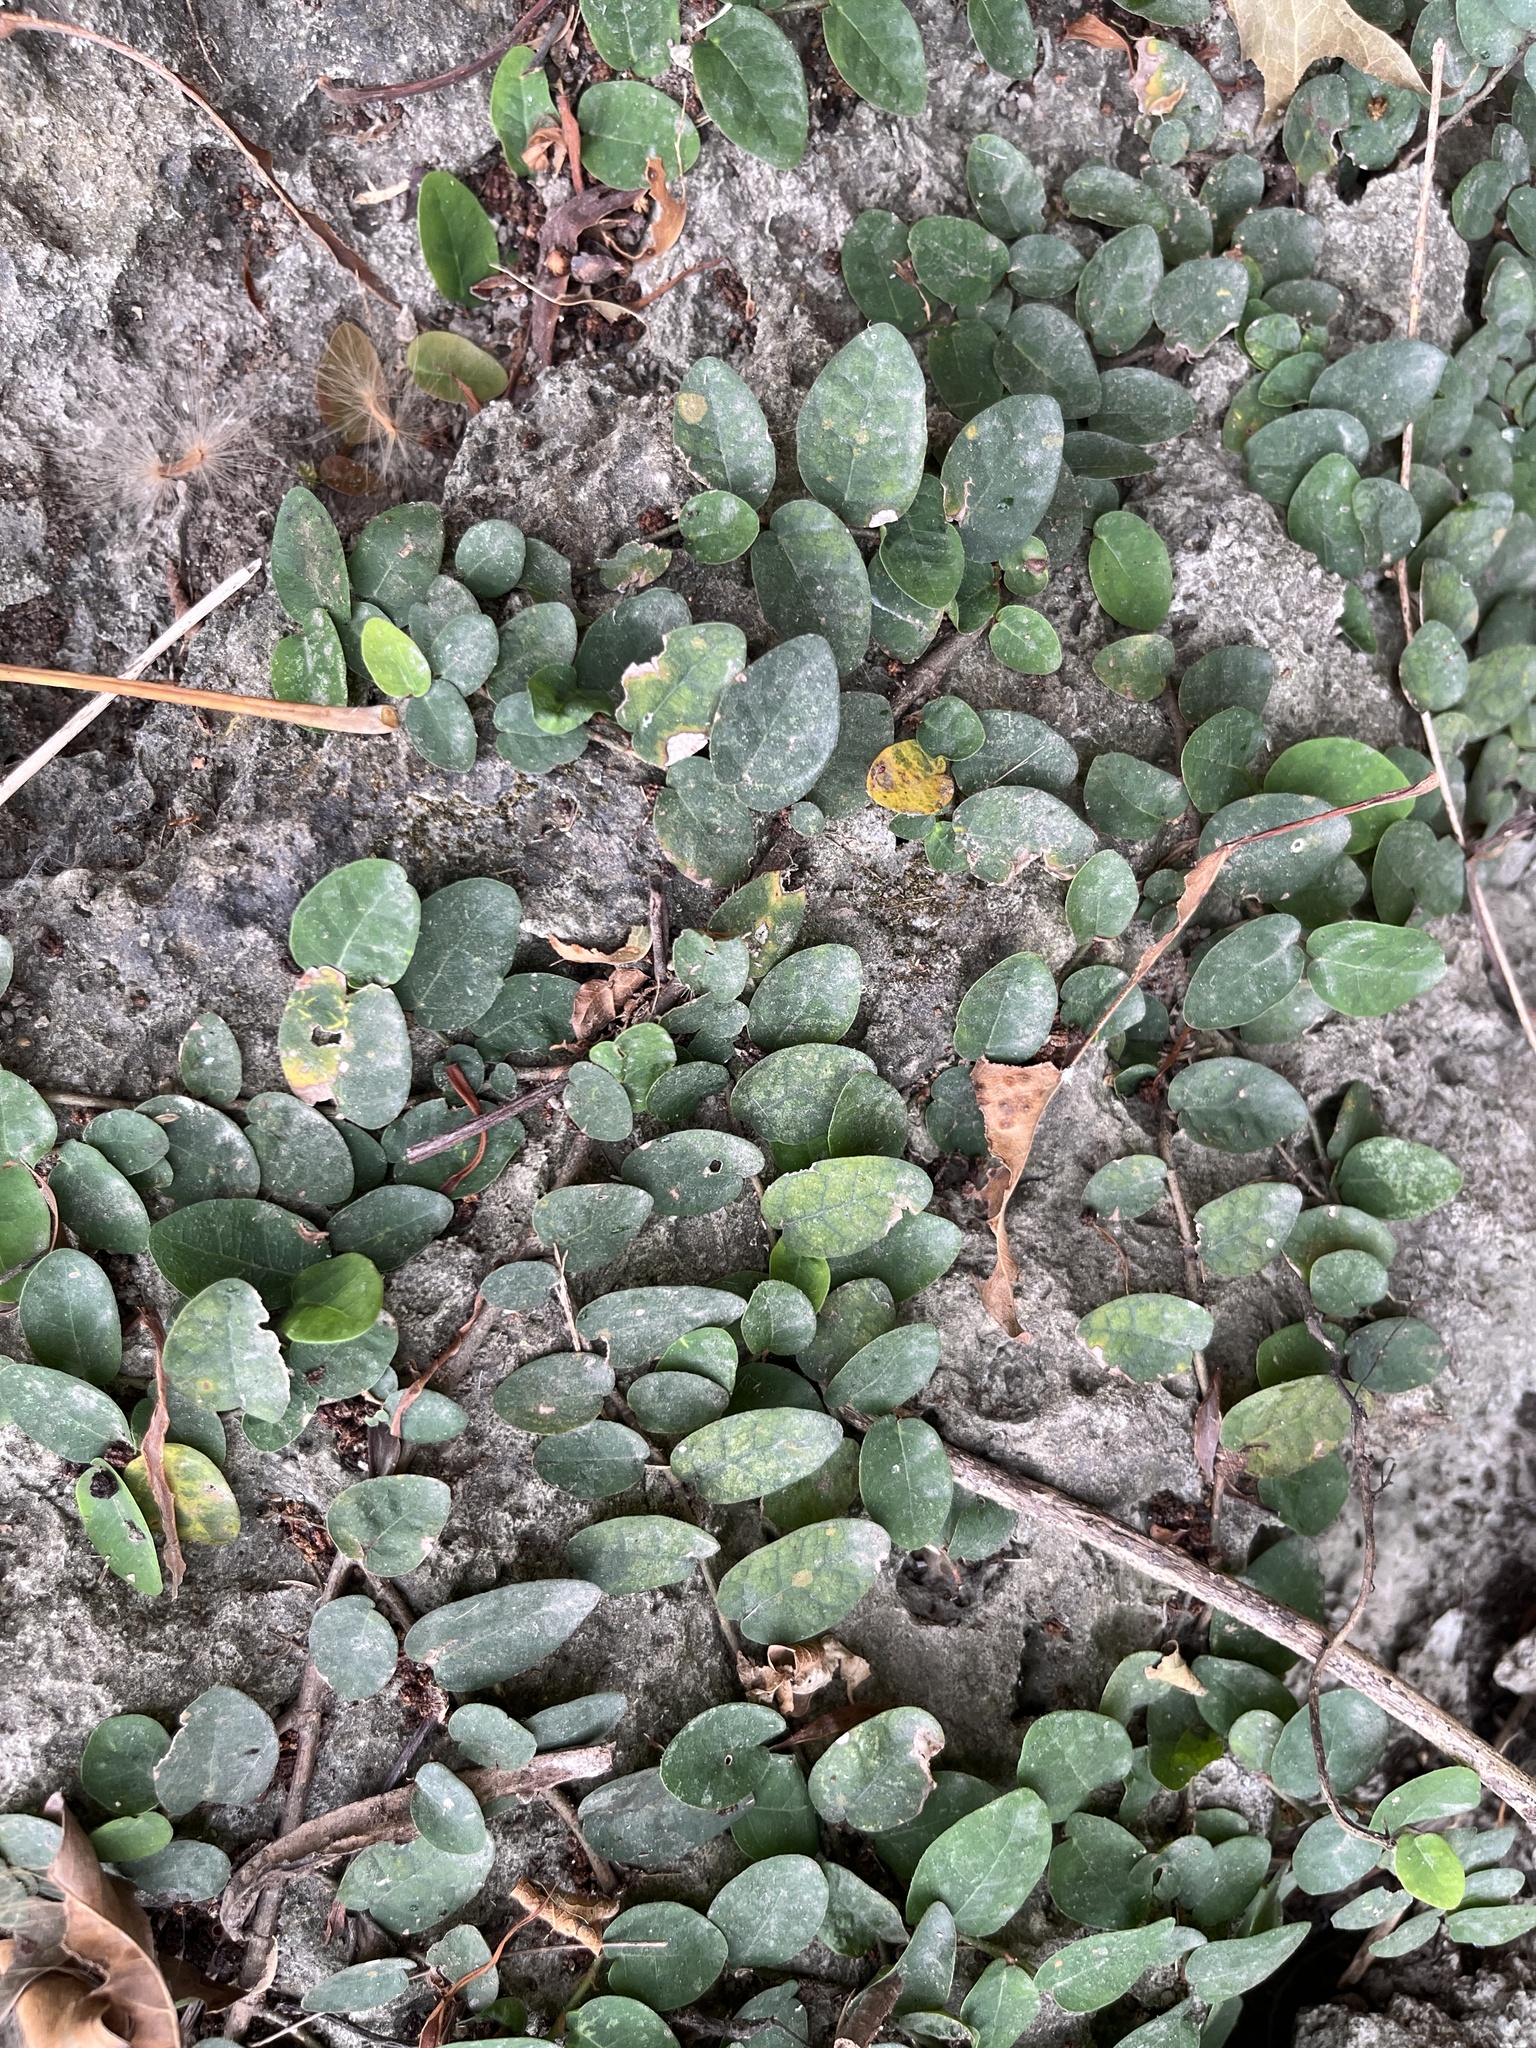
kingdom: Plantae
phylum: Tracheophyta
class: Magnoliopsida
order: Rosales
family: Moraceae
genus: Ficus
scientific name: Ficus pumila
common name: Climbingfig
